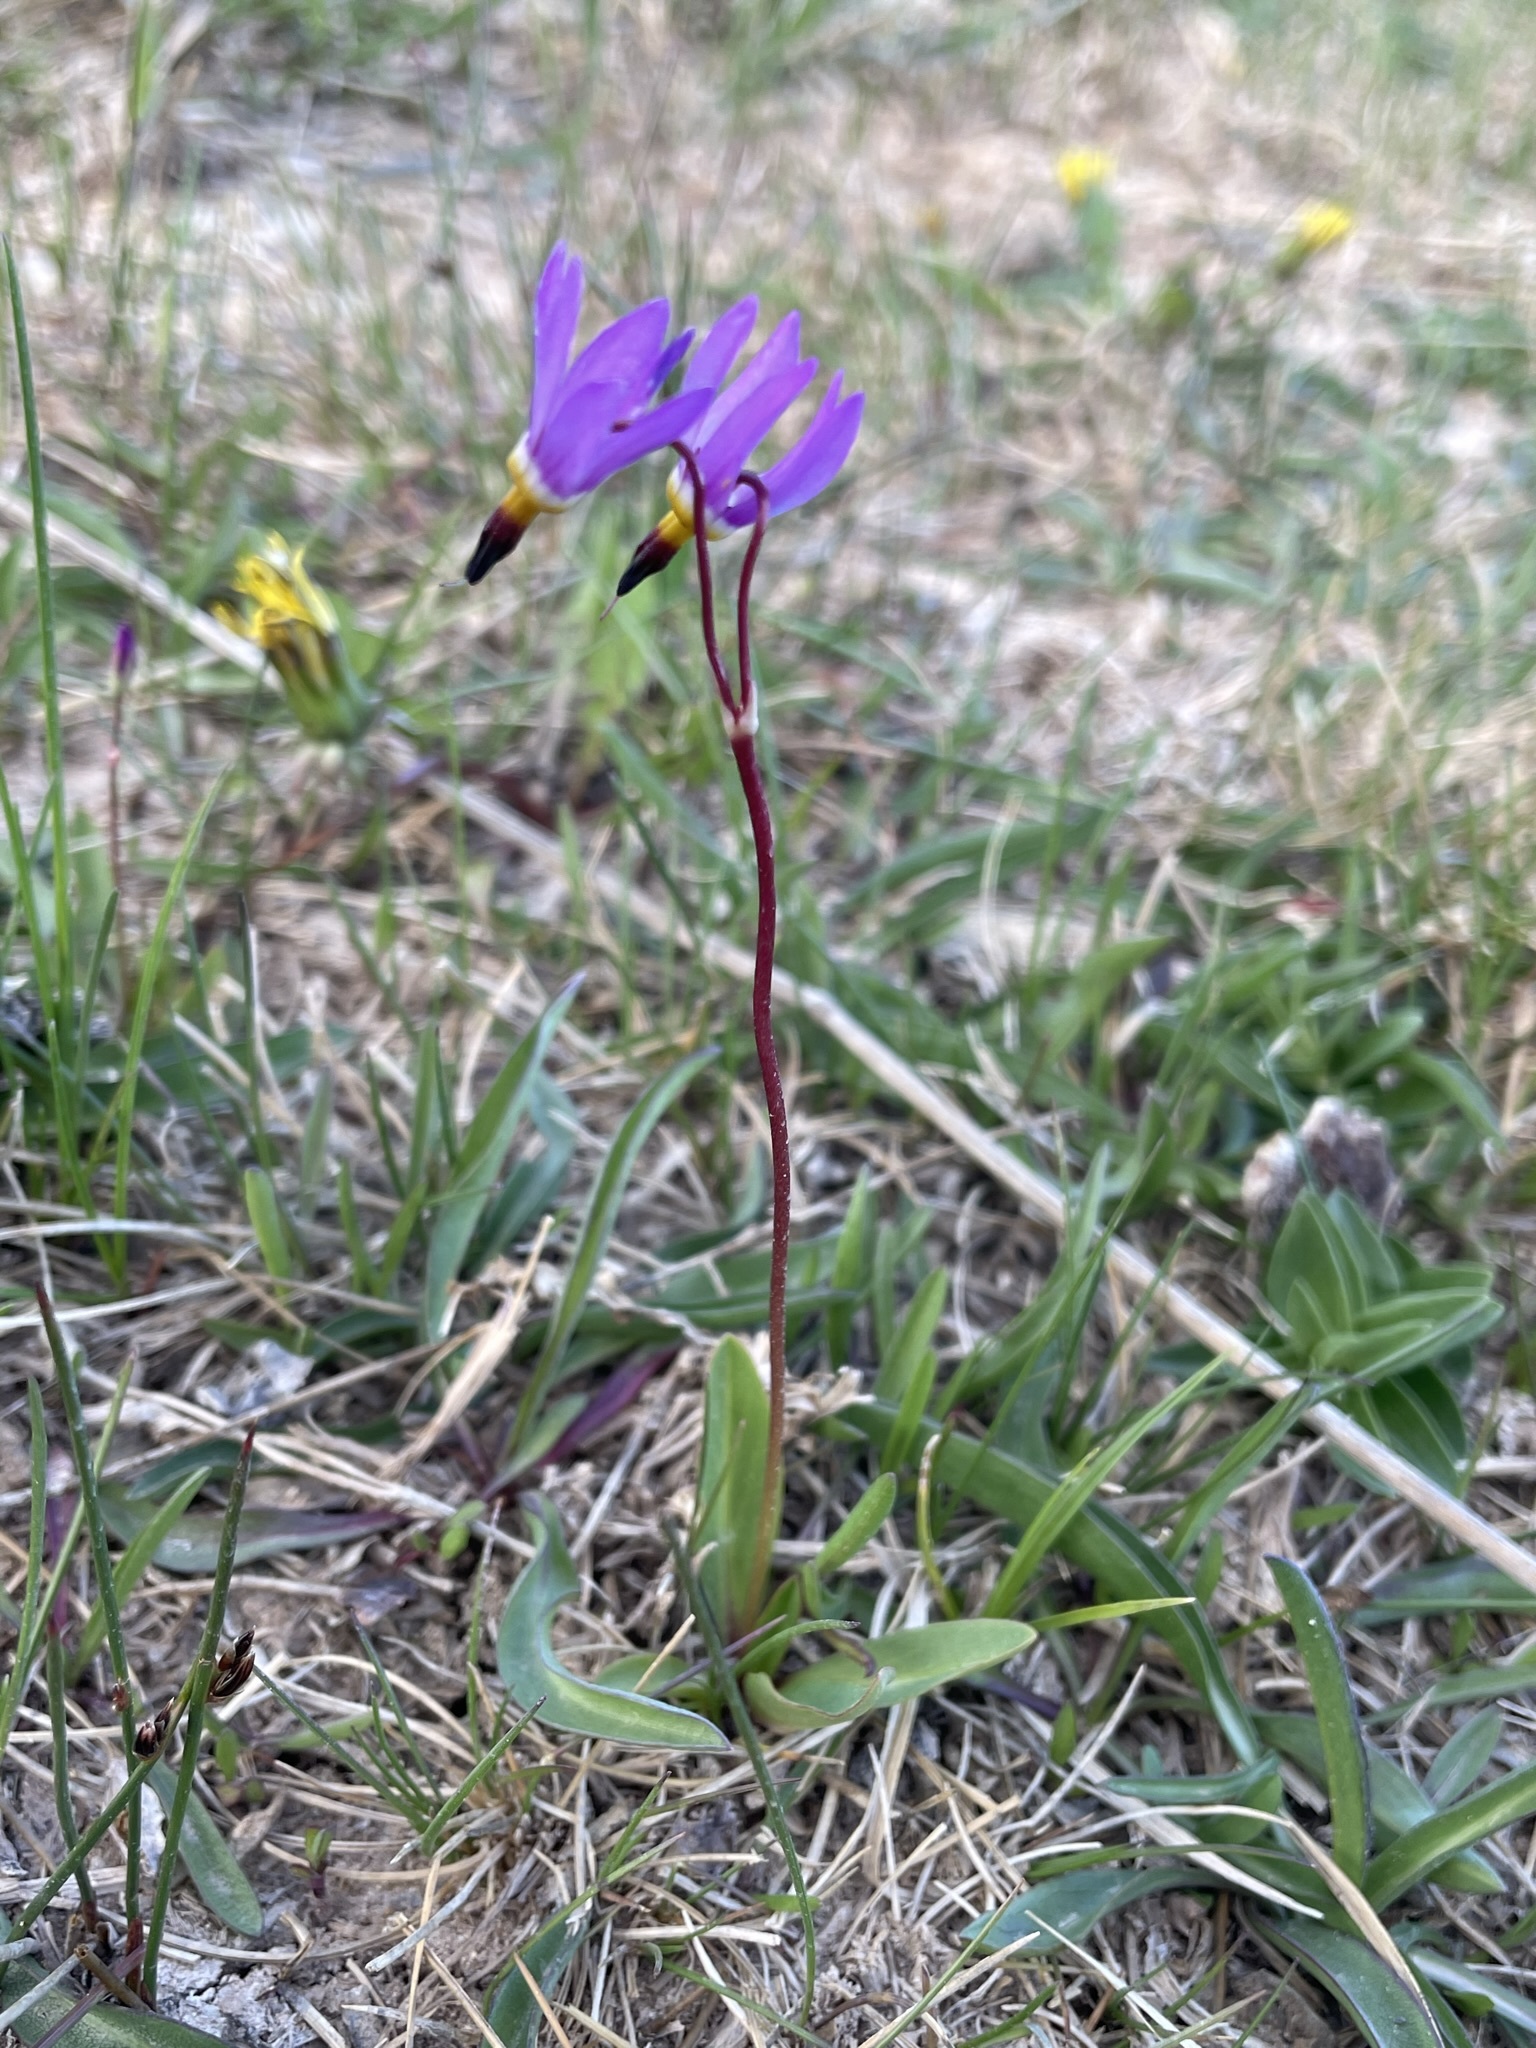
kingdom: Plantae
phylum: Tracheophyta
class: Magnoliopsida
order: Ericales
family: Primulaceae
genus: Dodecatheon
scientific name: Dodecatheon alpinum
